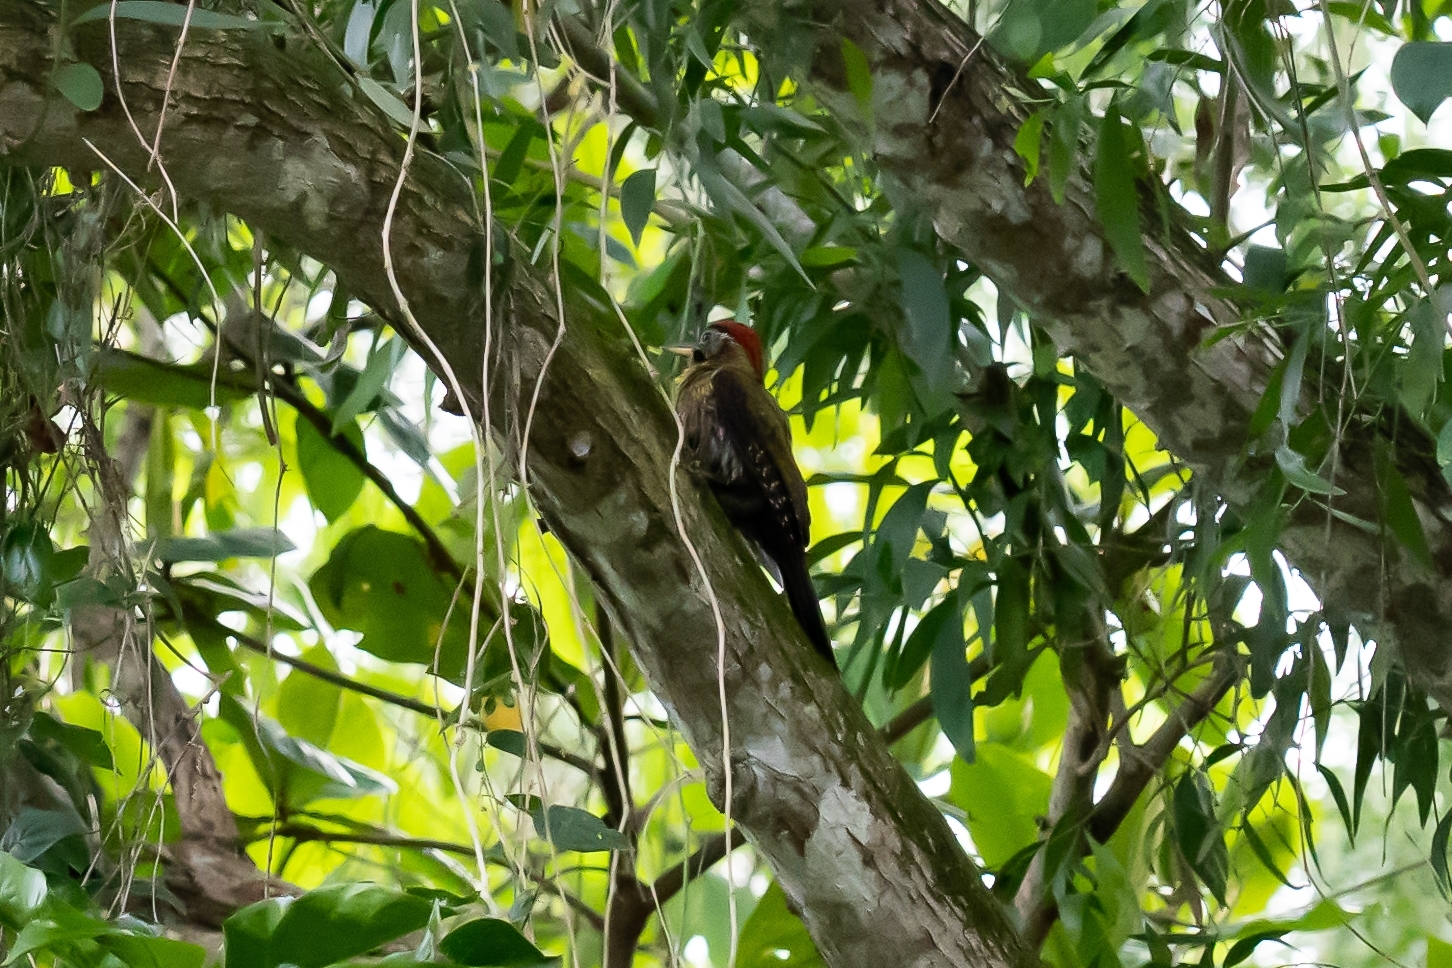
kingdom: Animalia
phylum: Chordata
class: Aves
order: Piciformes
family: Picidae
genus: Picus
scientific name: Picus vittatus
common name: Laced woodpecker
